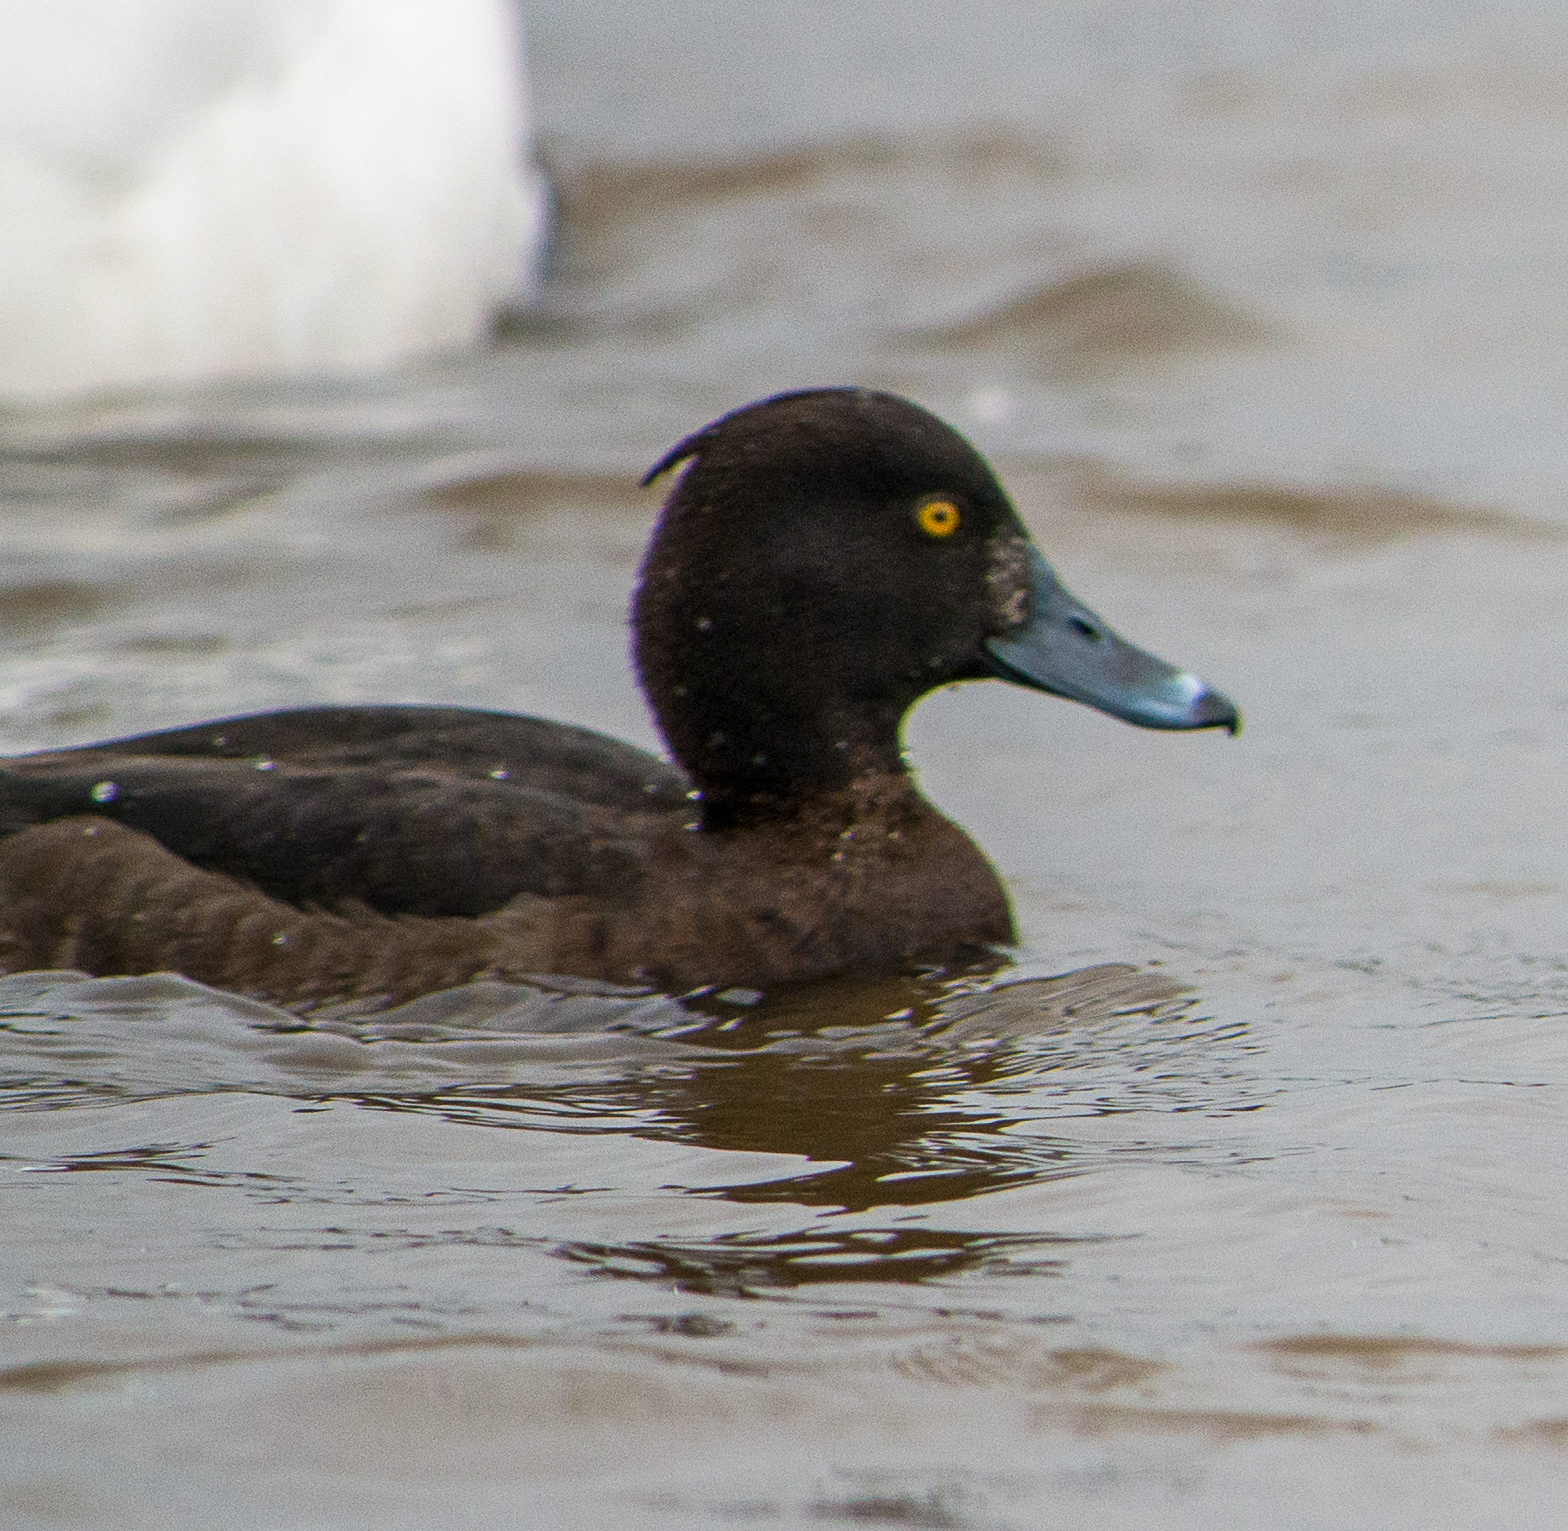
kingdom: Animalia
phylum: Chordata
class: Aves
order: Anseriformes
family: Anatidae
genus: Aythya
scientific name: Aythya fuligula
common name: Tufted duck
